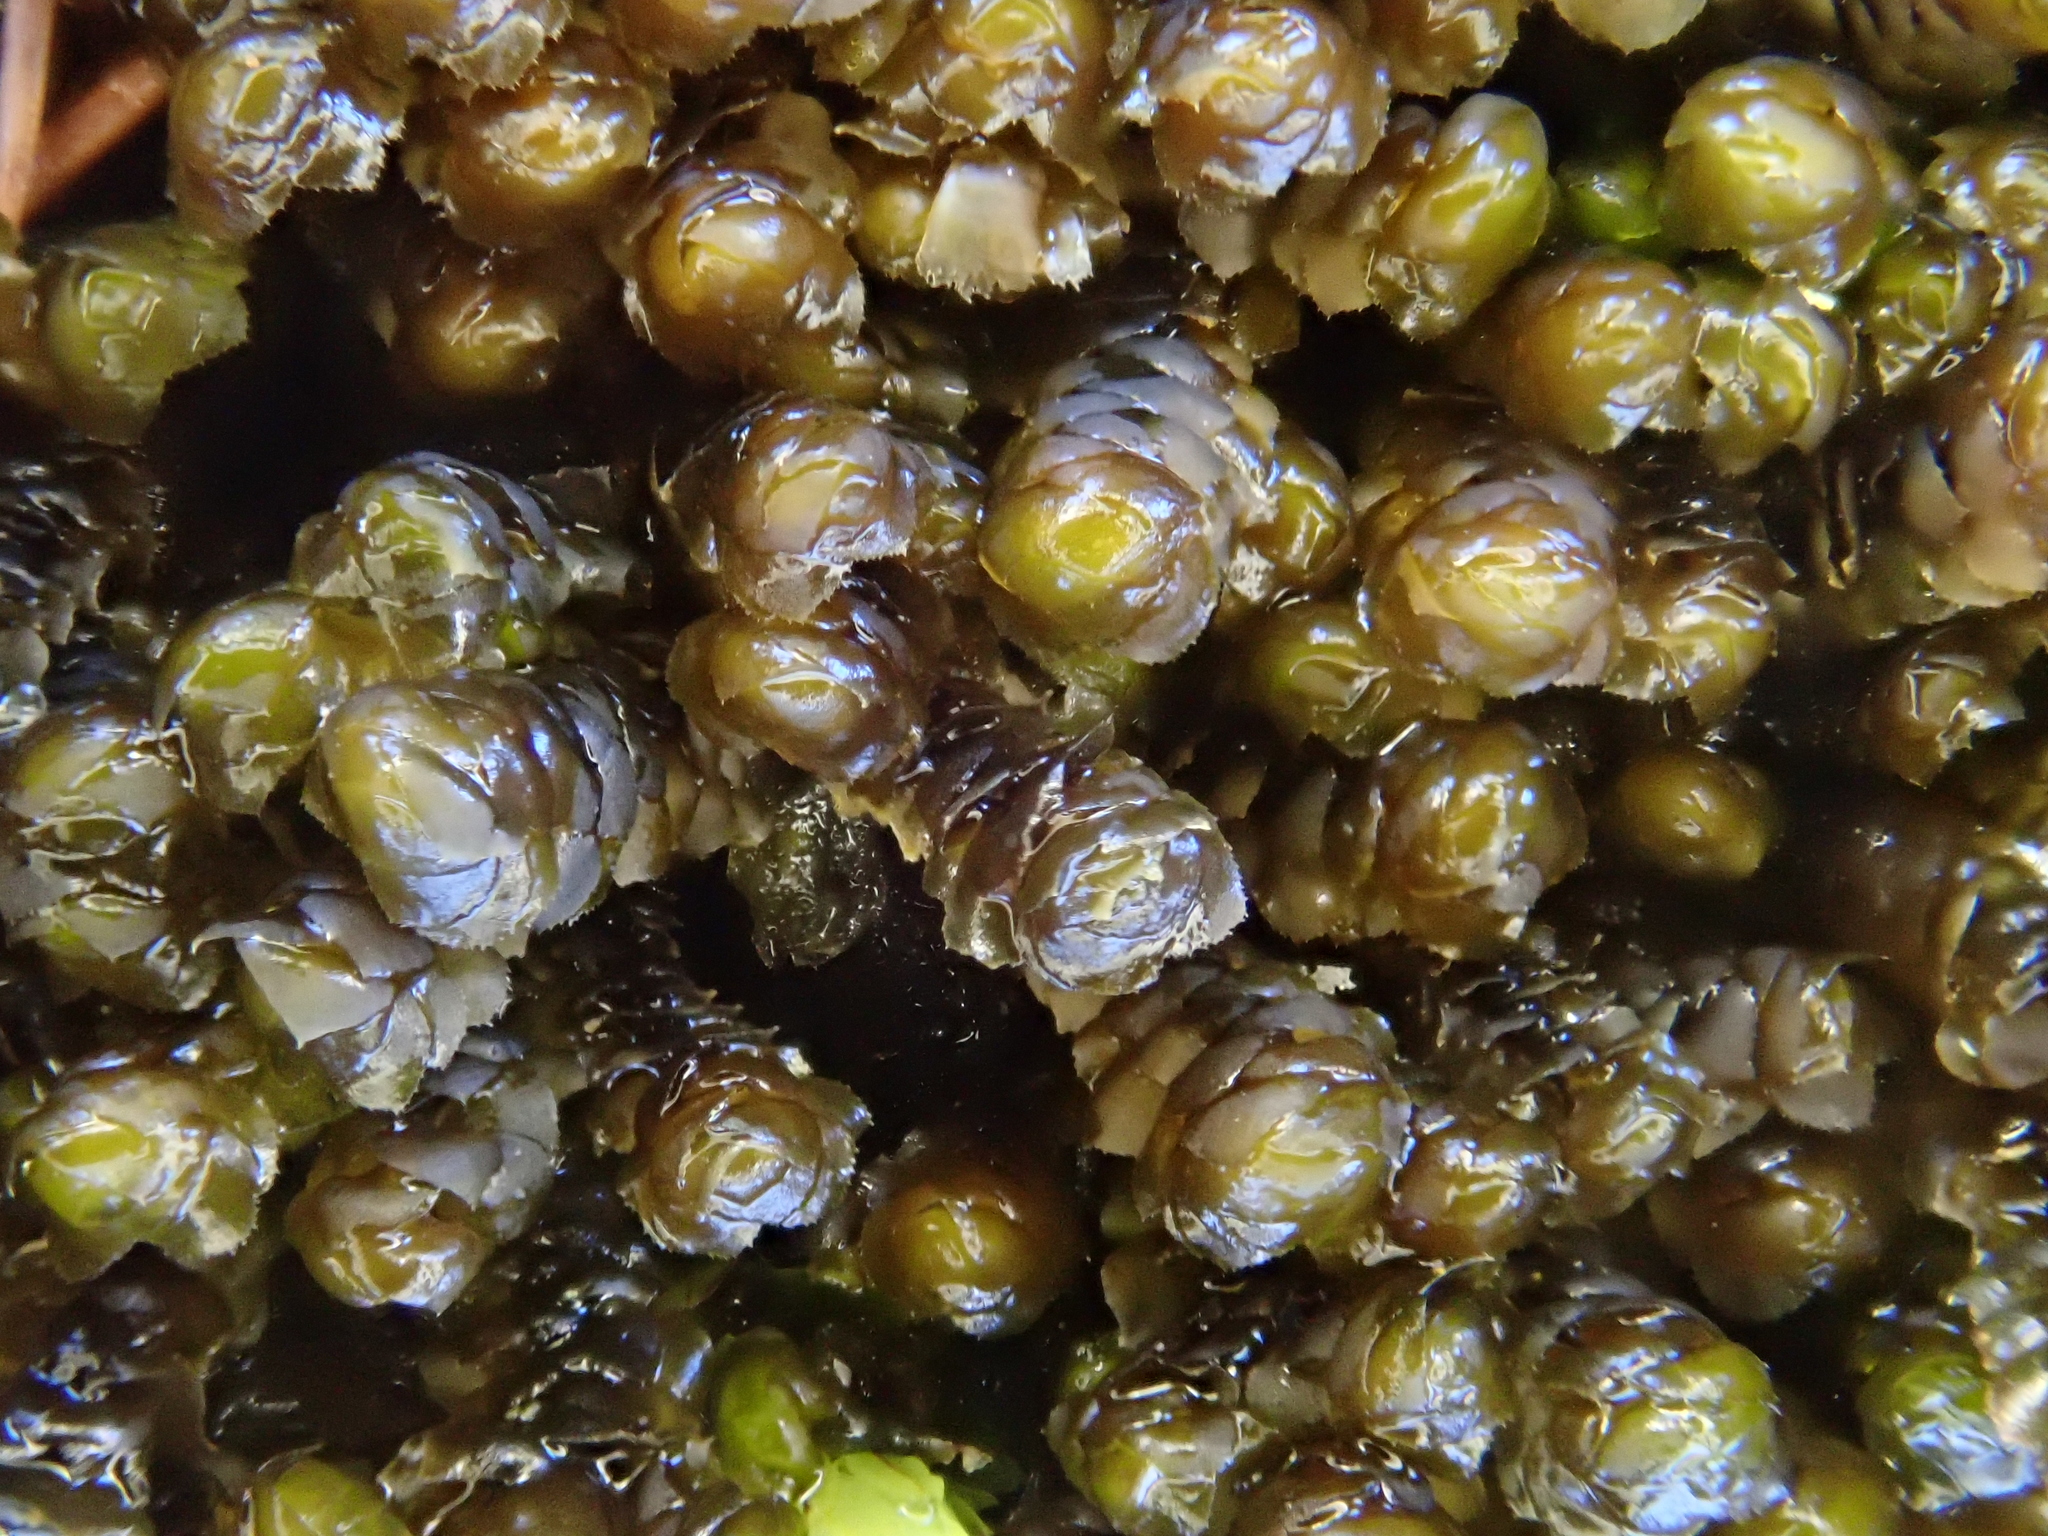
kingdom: Plantae
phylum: Marchantiophyta
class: Jungermanniopsida
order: Jungermanniales
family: Scapaniaceae
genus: Scapania
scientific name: Scapania aspera
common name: Rough earwort
